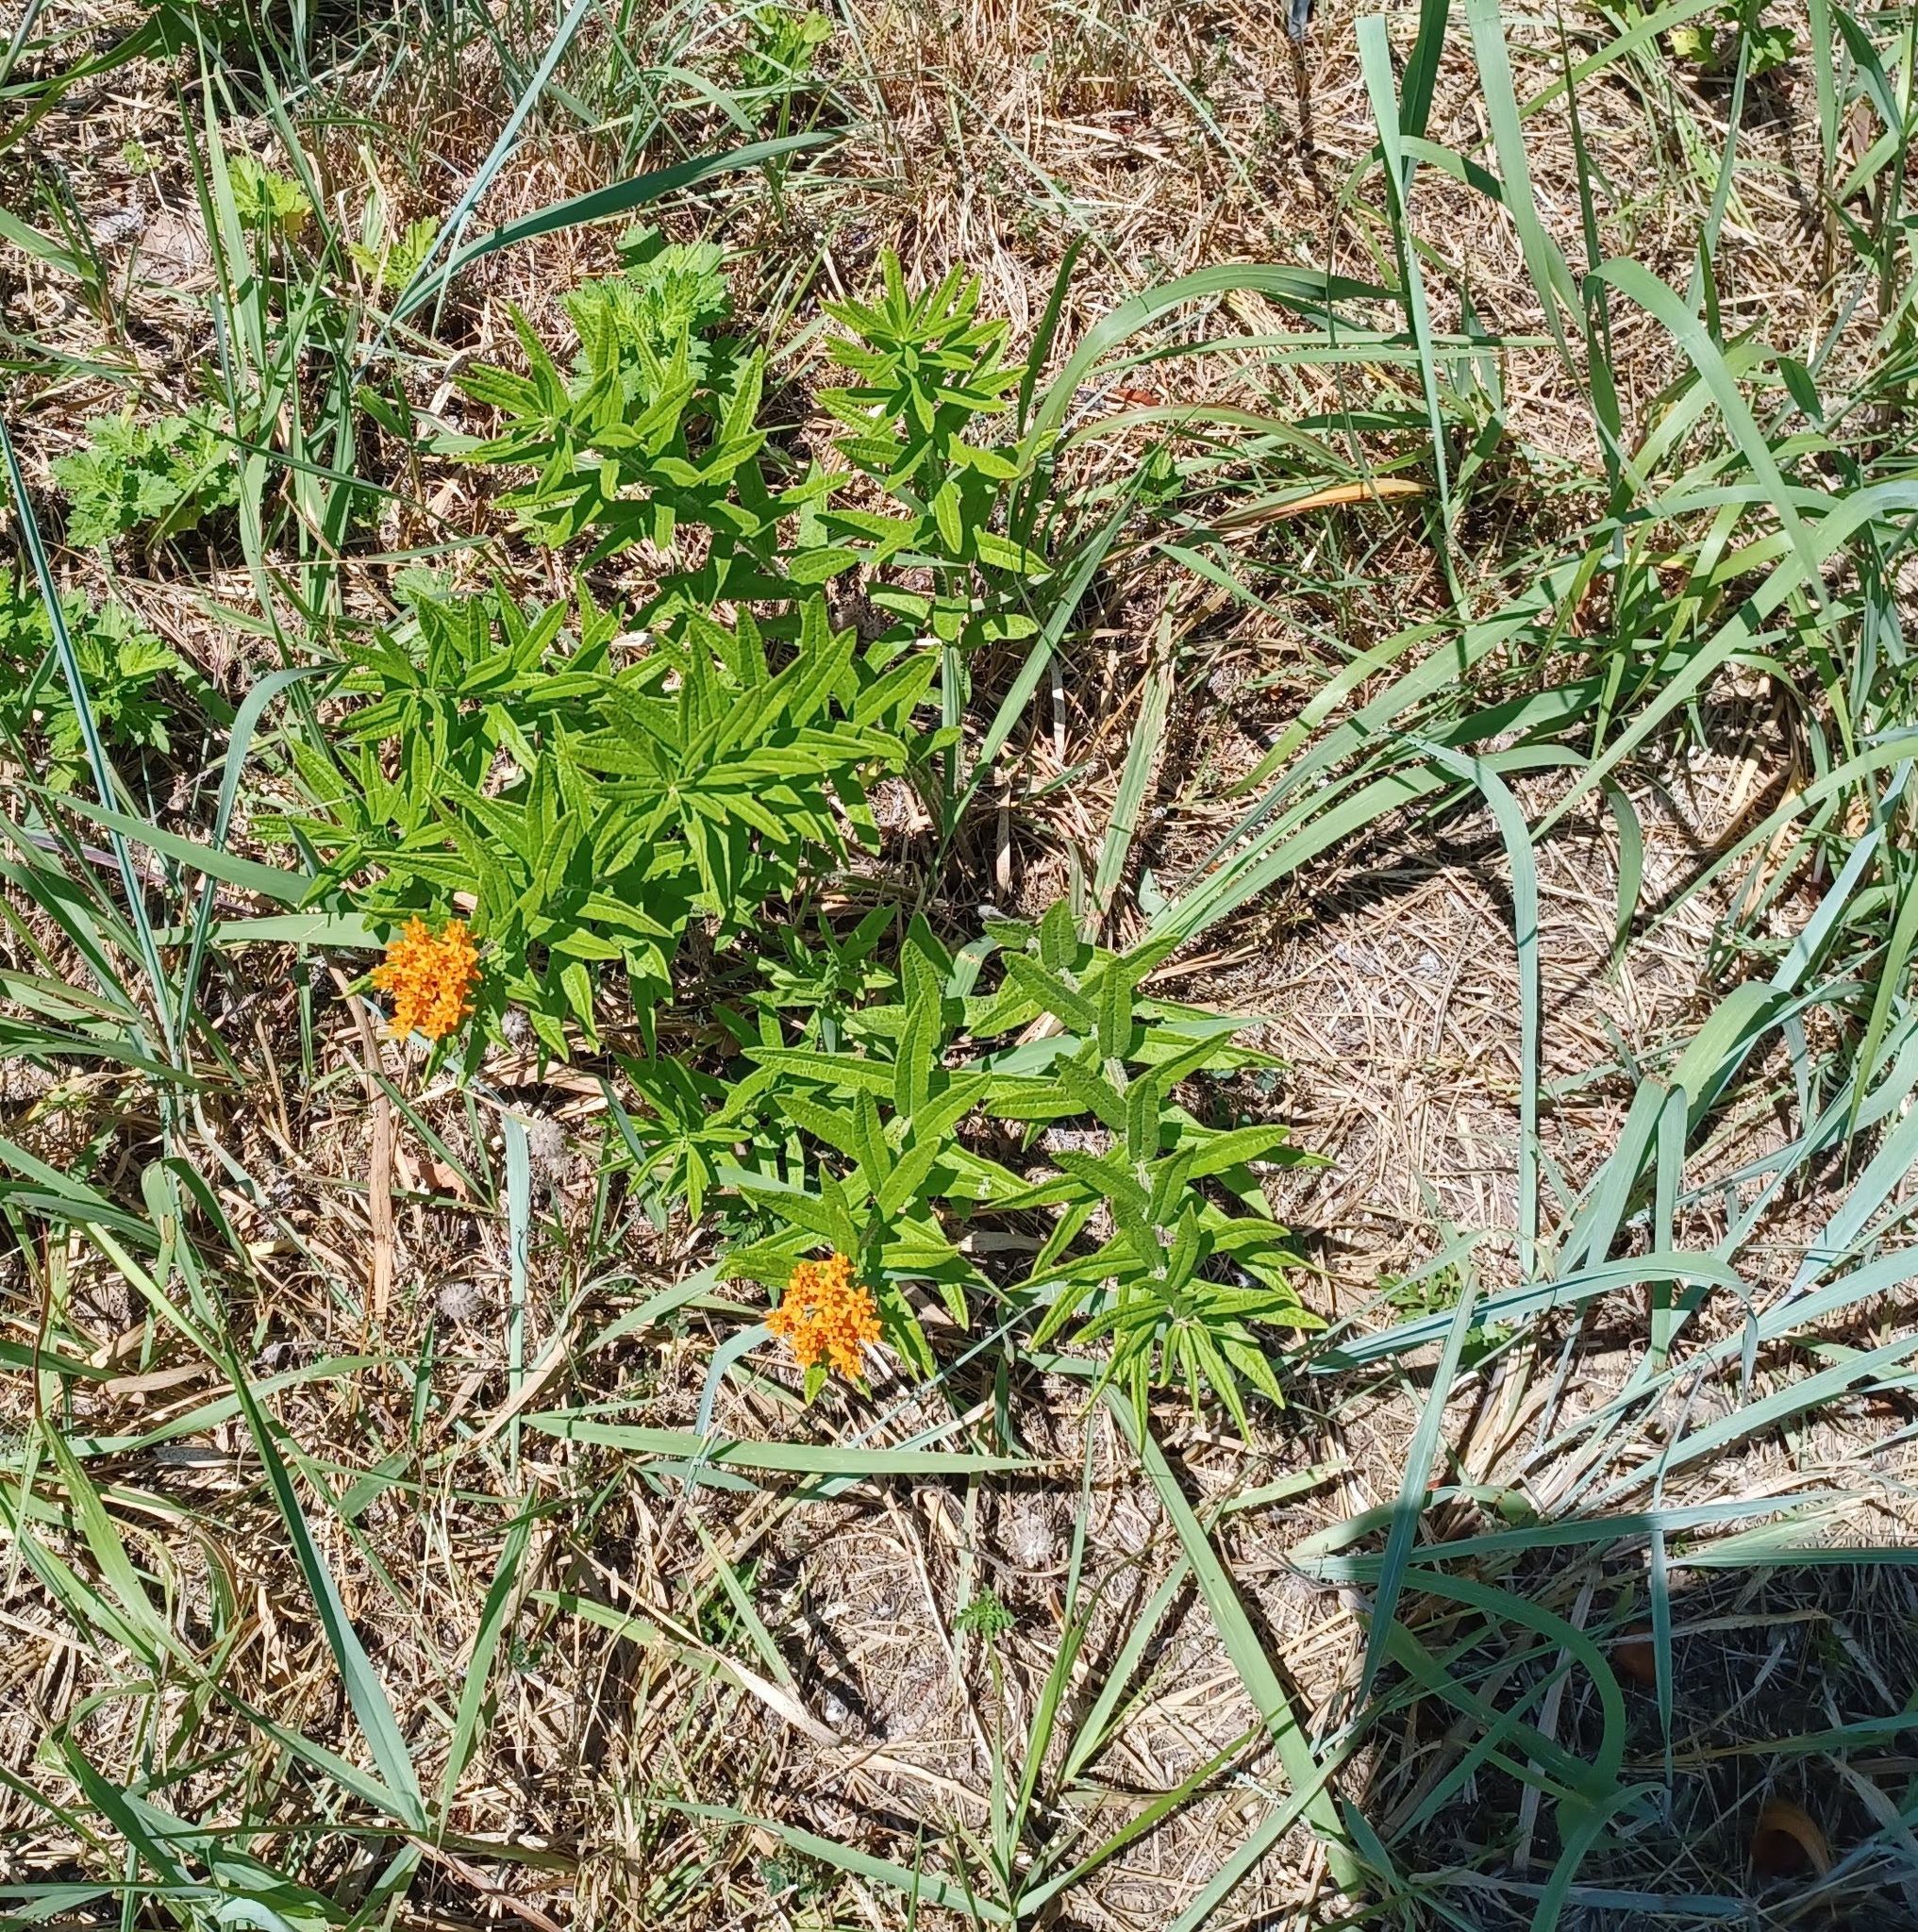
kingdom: Plantae
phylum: Tracheophyta
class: Magnoliopsida
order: Gentianales
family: Apocynaceae
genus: Asclepias
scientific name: Asclepias tuberosa
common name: Butterfly milkweed
